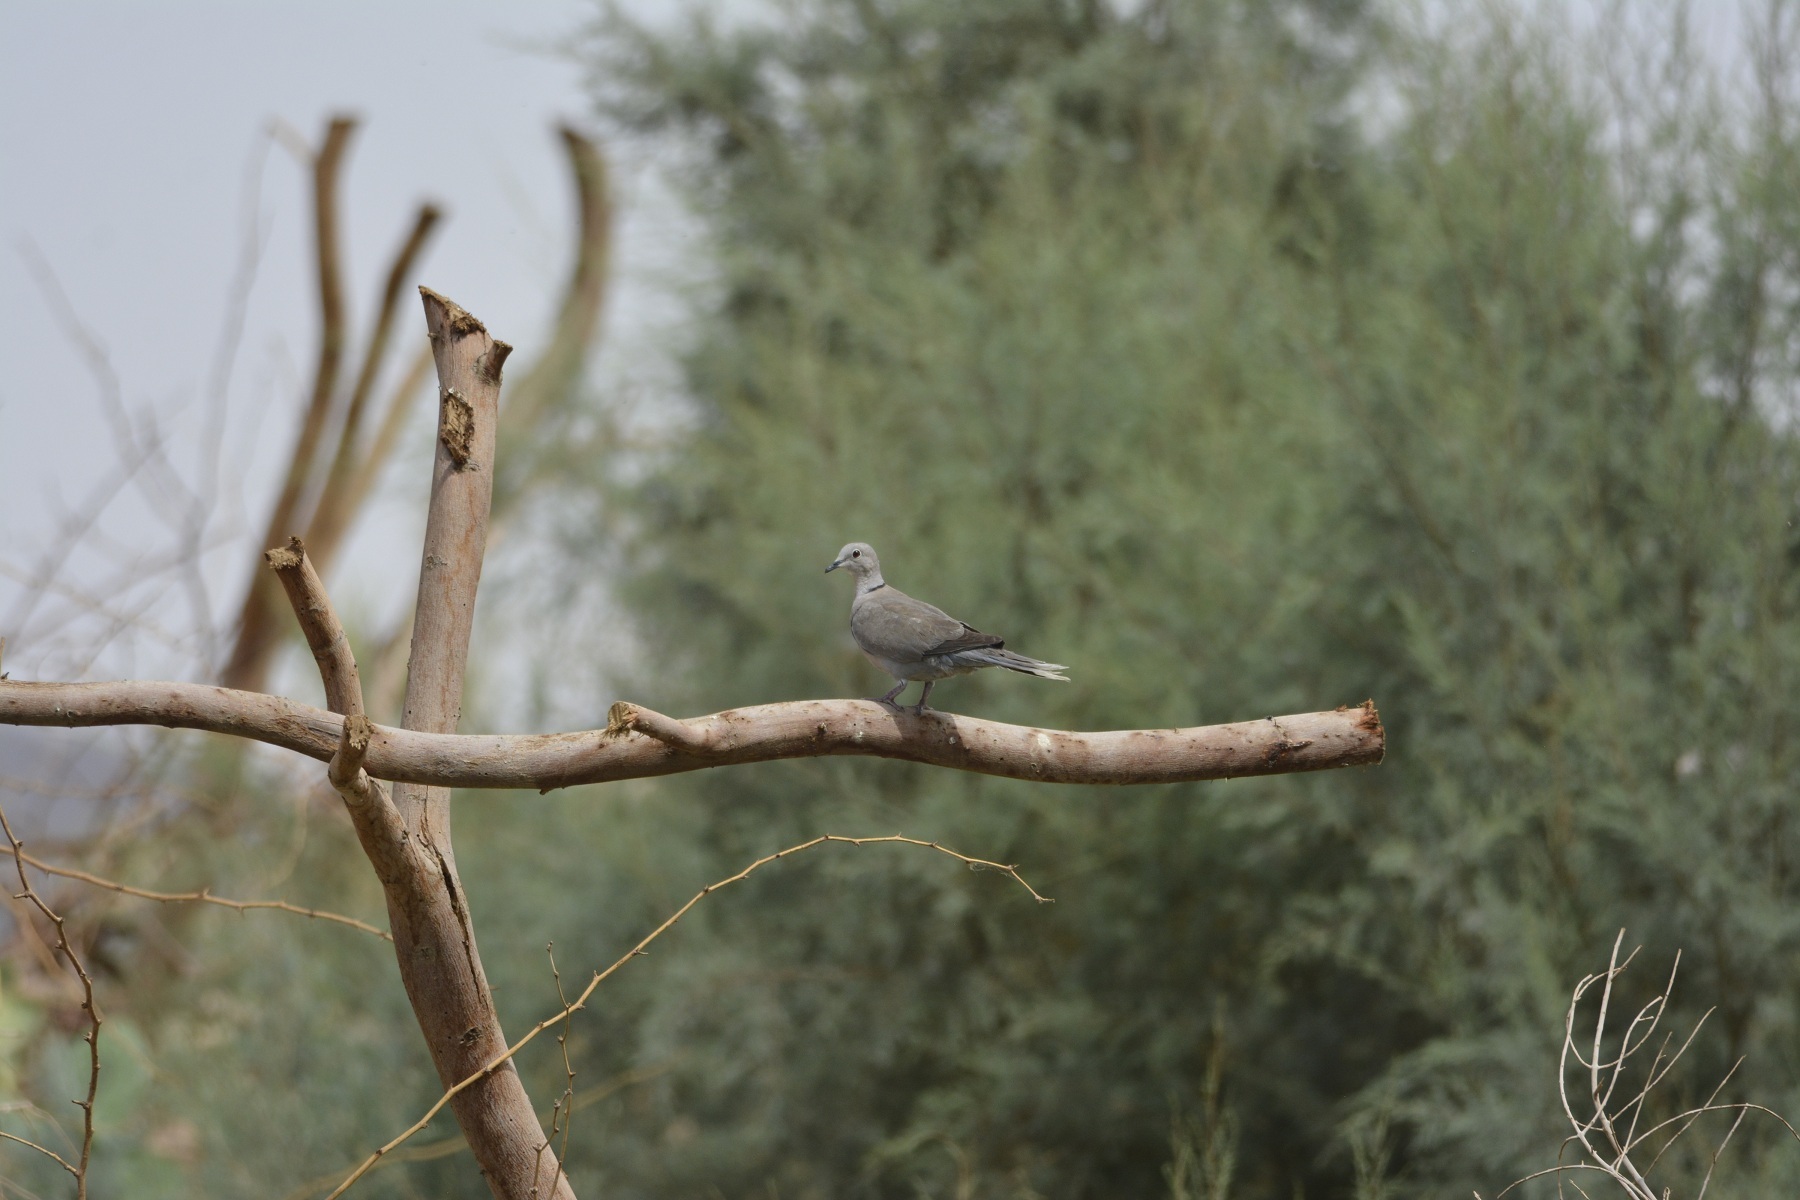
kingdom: Animalia
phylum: Chordata
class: Aves
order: Columbiformes
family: Columbidae
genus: Streptopelia
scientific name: Streptopelia decaocto
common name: Eurasian collared dove
